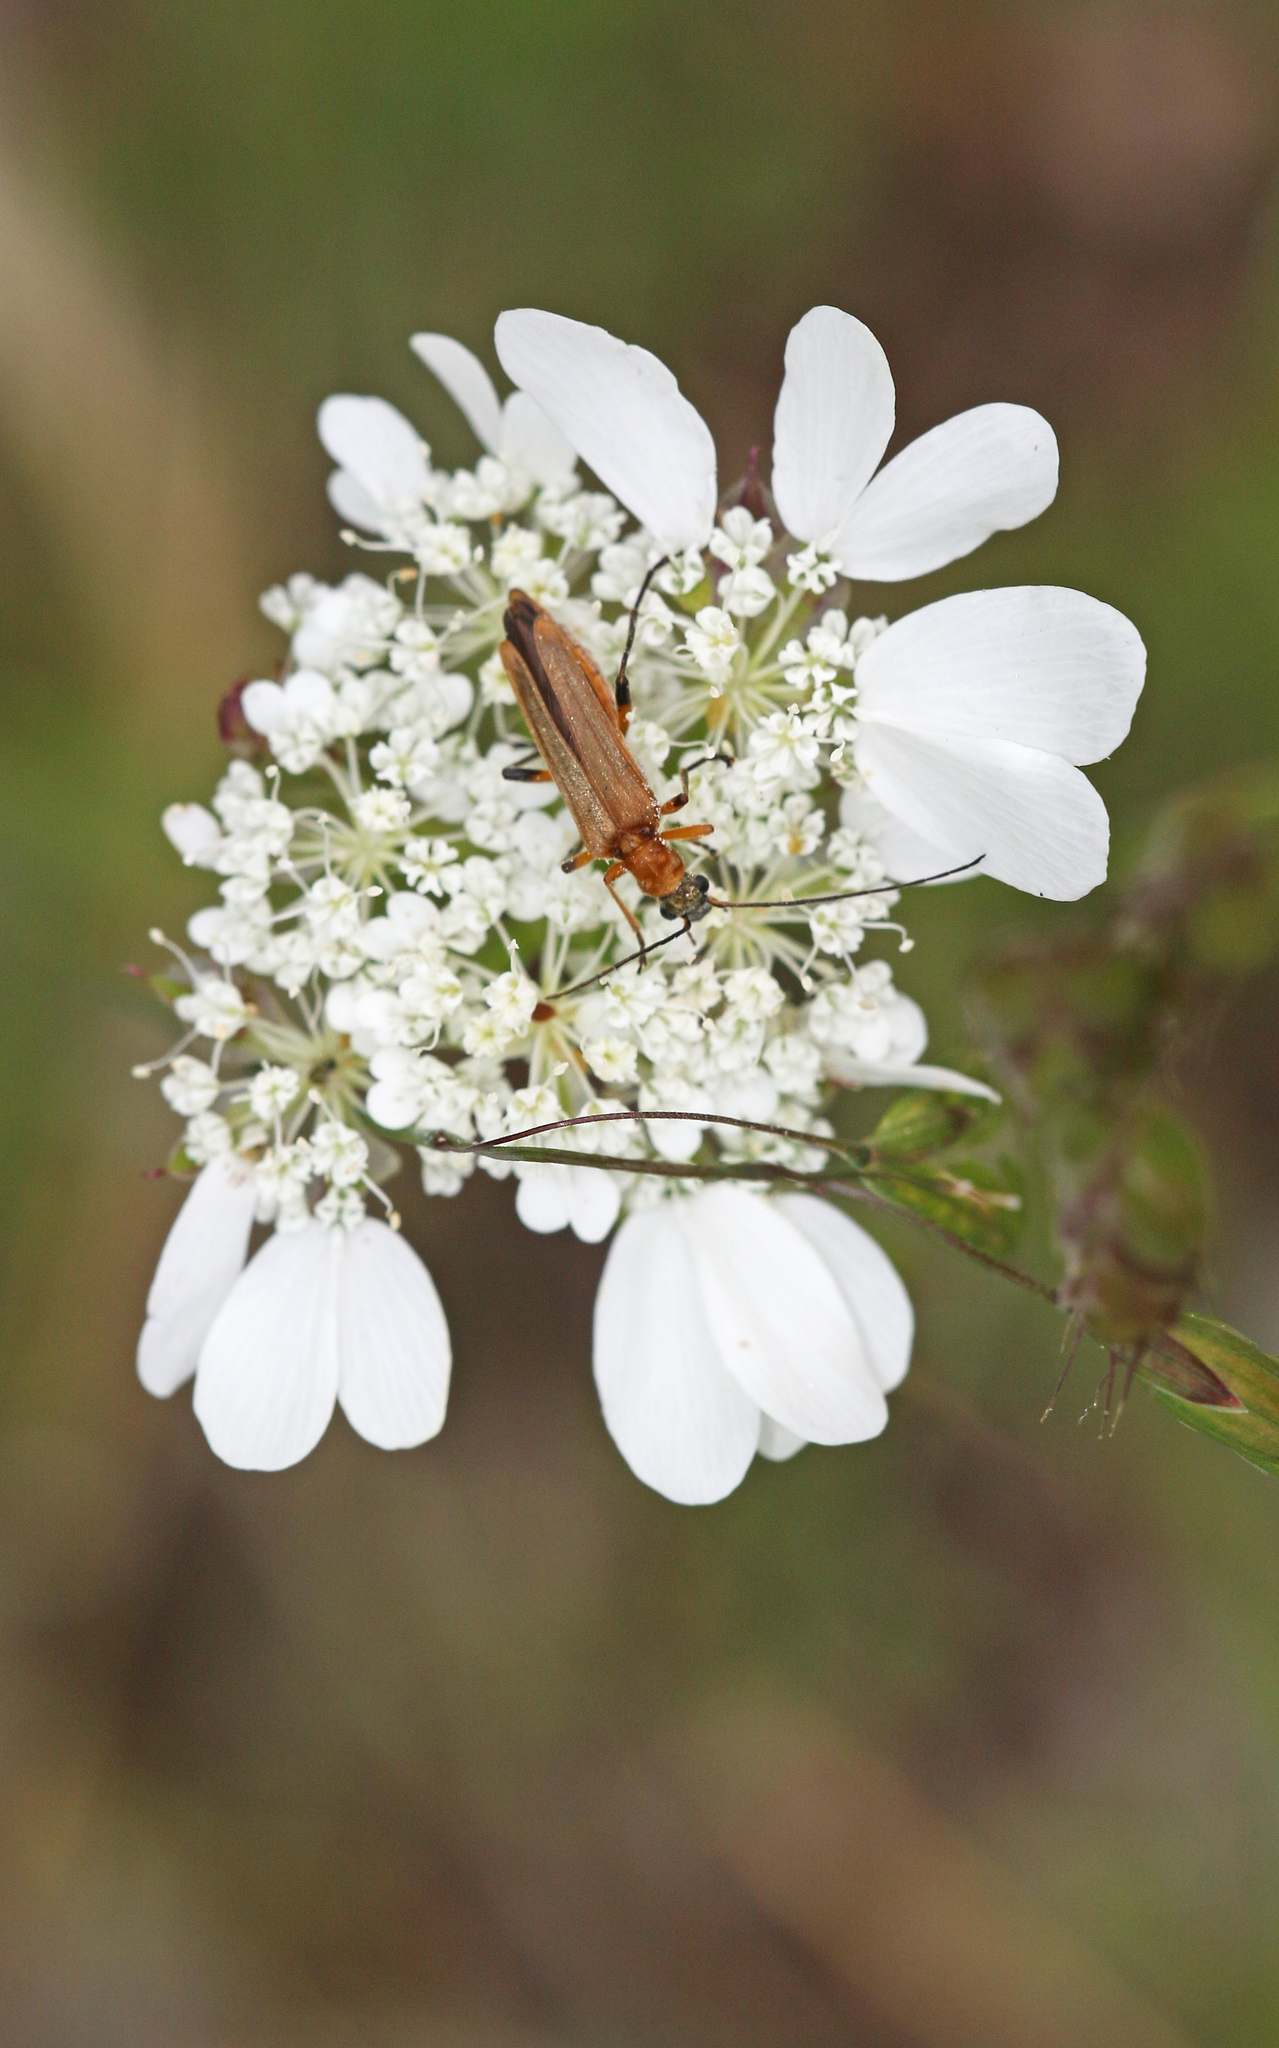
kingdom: Animalia
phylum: Arthropoda
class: Insecta
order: Coleoptera
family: Oedemeridae
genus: Oedemera
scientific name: Oedemera podagrariae
